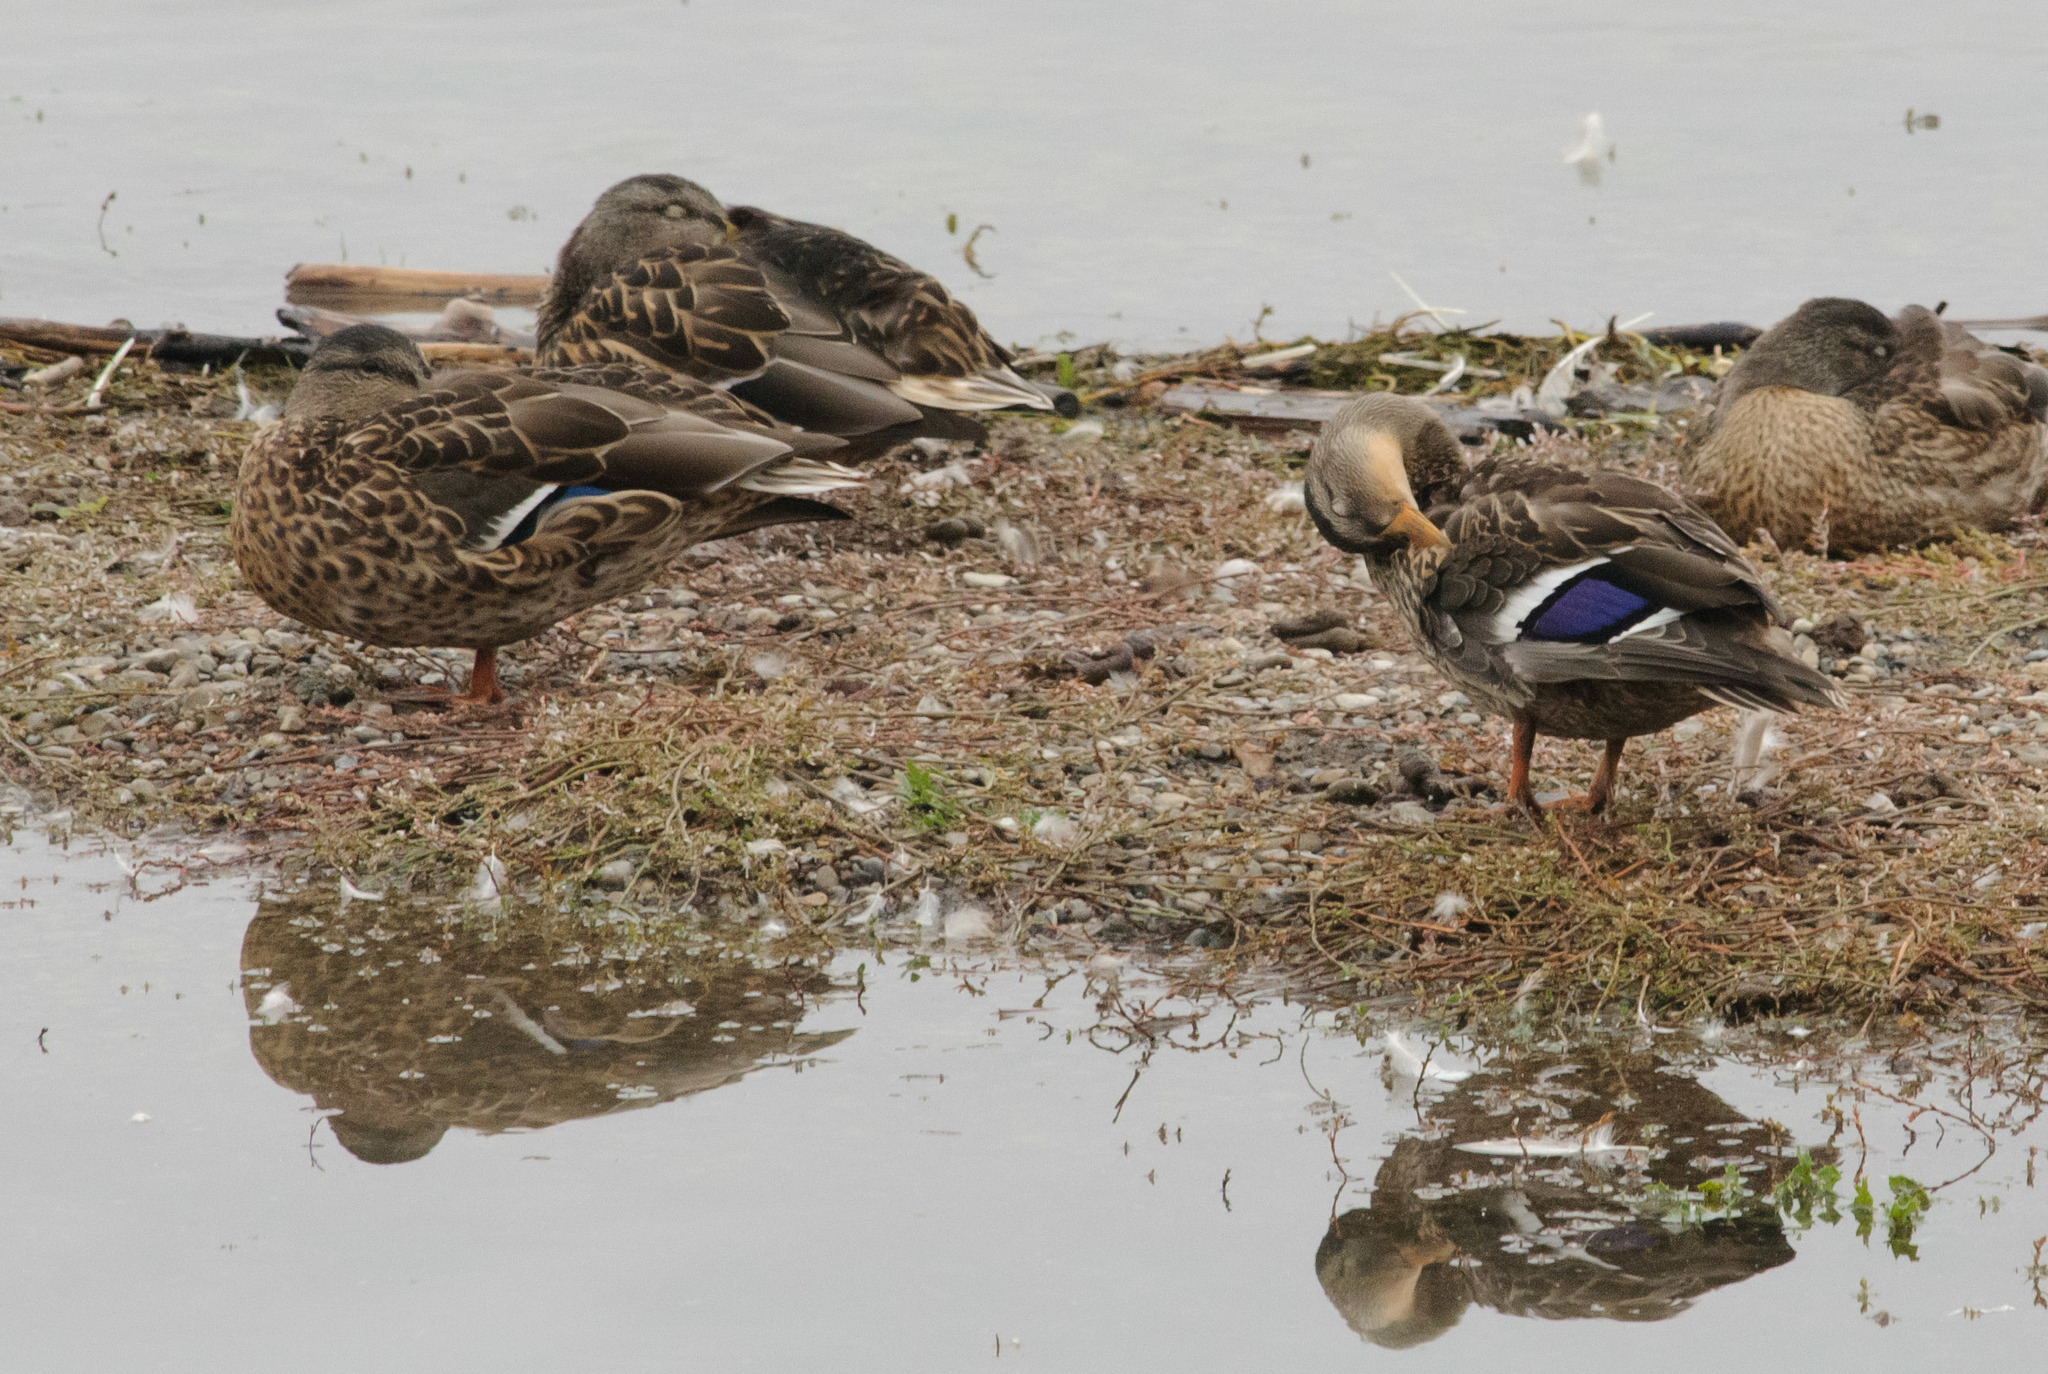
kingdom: Animalia
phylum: Chordata
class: Aves
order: Anseriformes
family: Anatidae
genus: Anas
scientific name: Anas platyrhynchos
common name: Mallard
